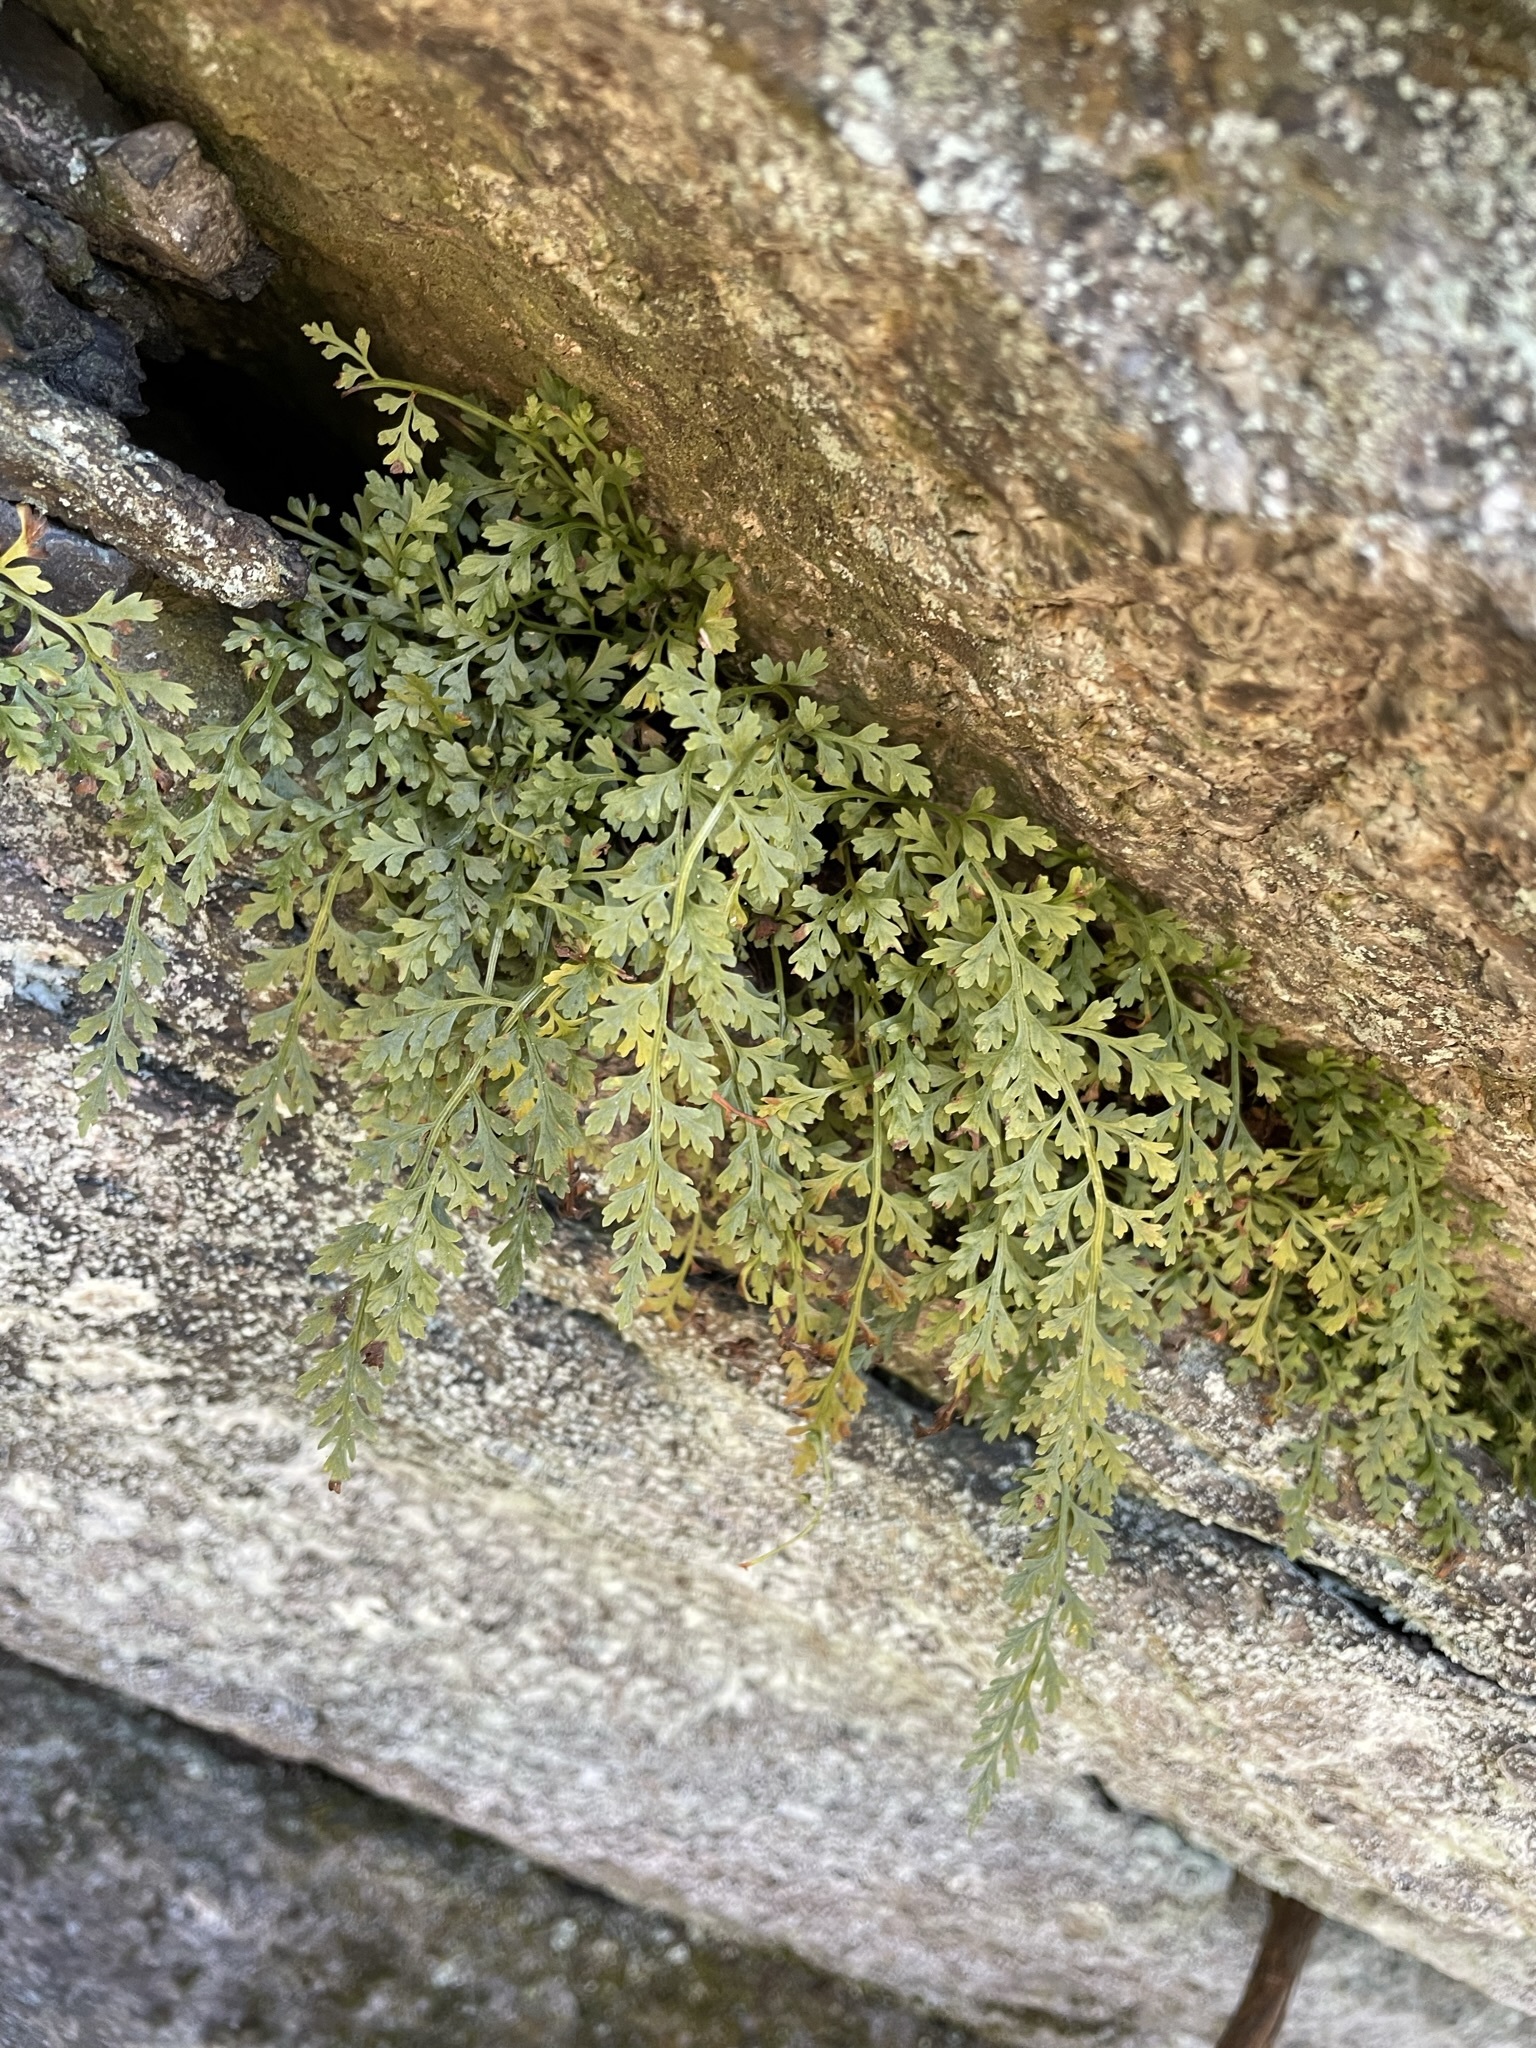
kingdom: Plantae
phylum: Tracheophyta
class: Polypodiopsida
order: Polypodiales
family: Aspleniaceae
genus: Asplenium
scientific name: Asplenium montanum
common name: Mountain spleenwort
